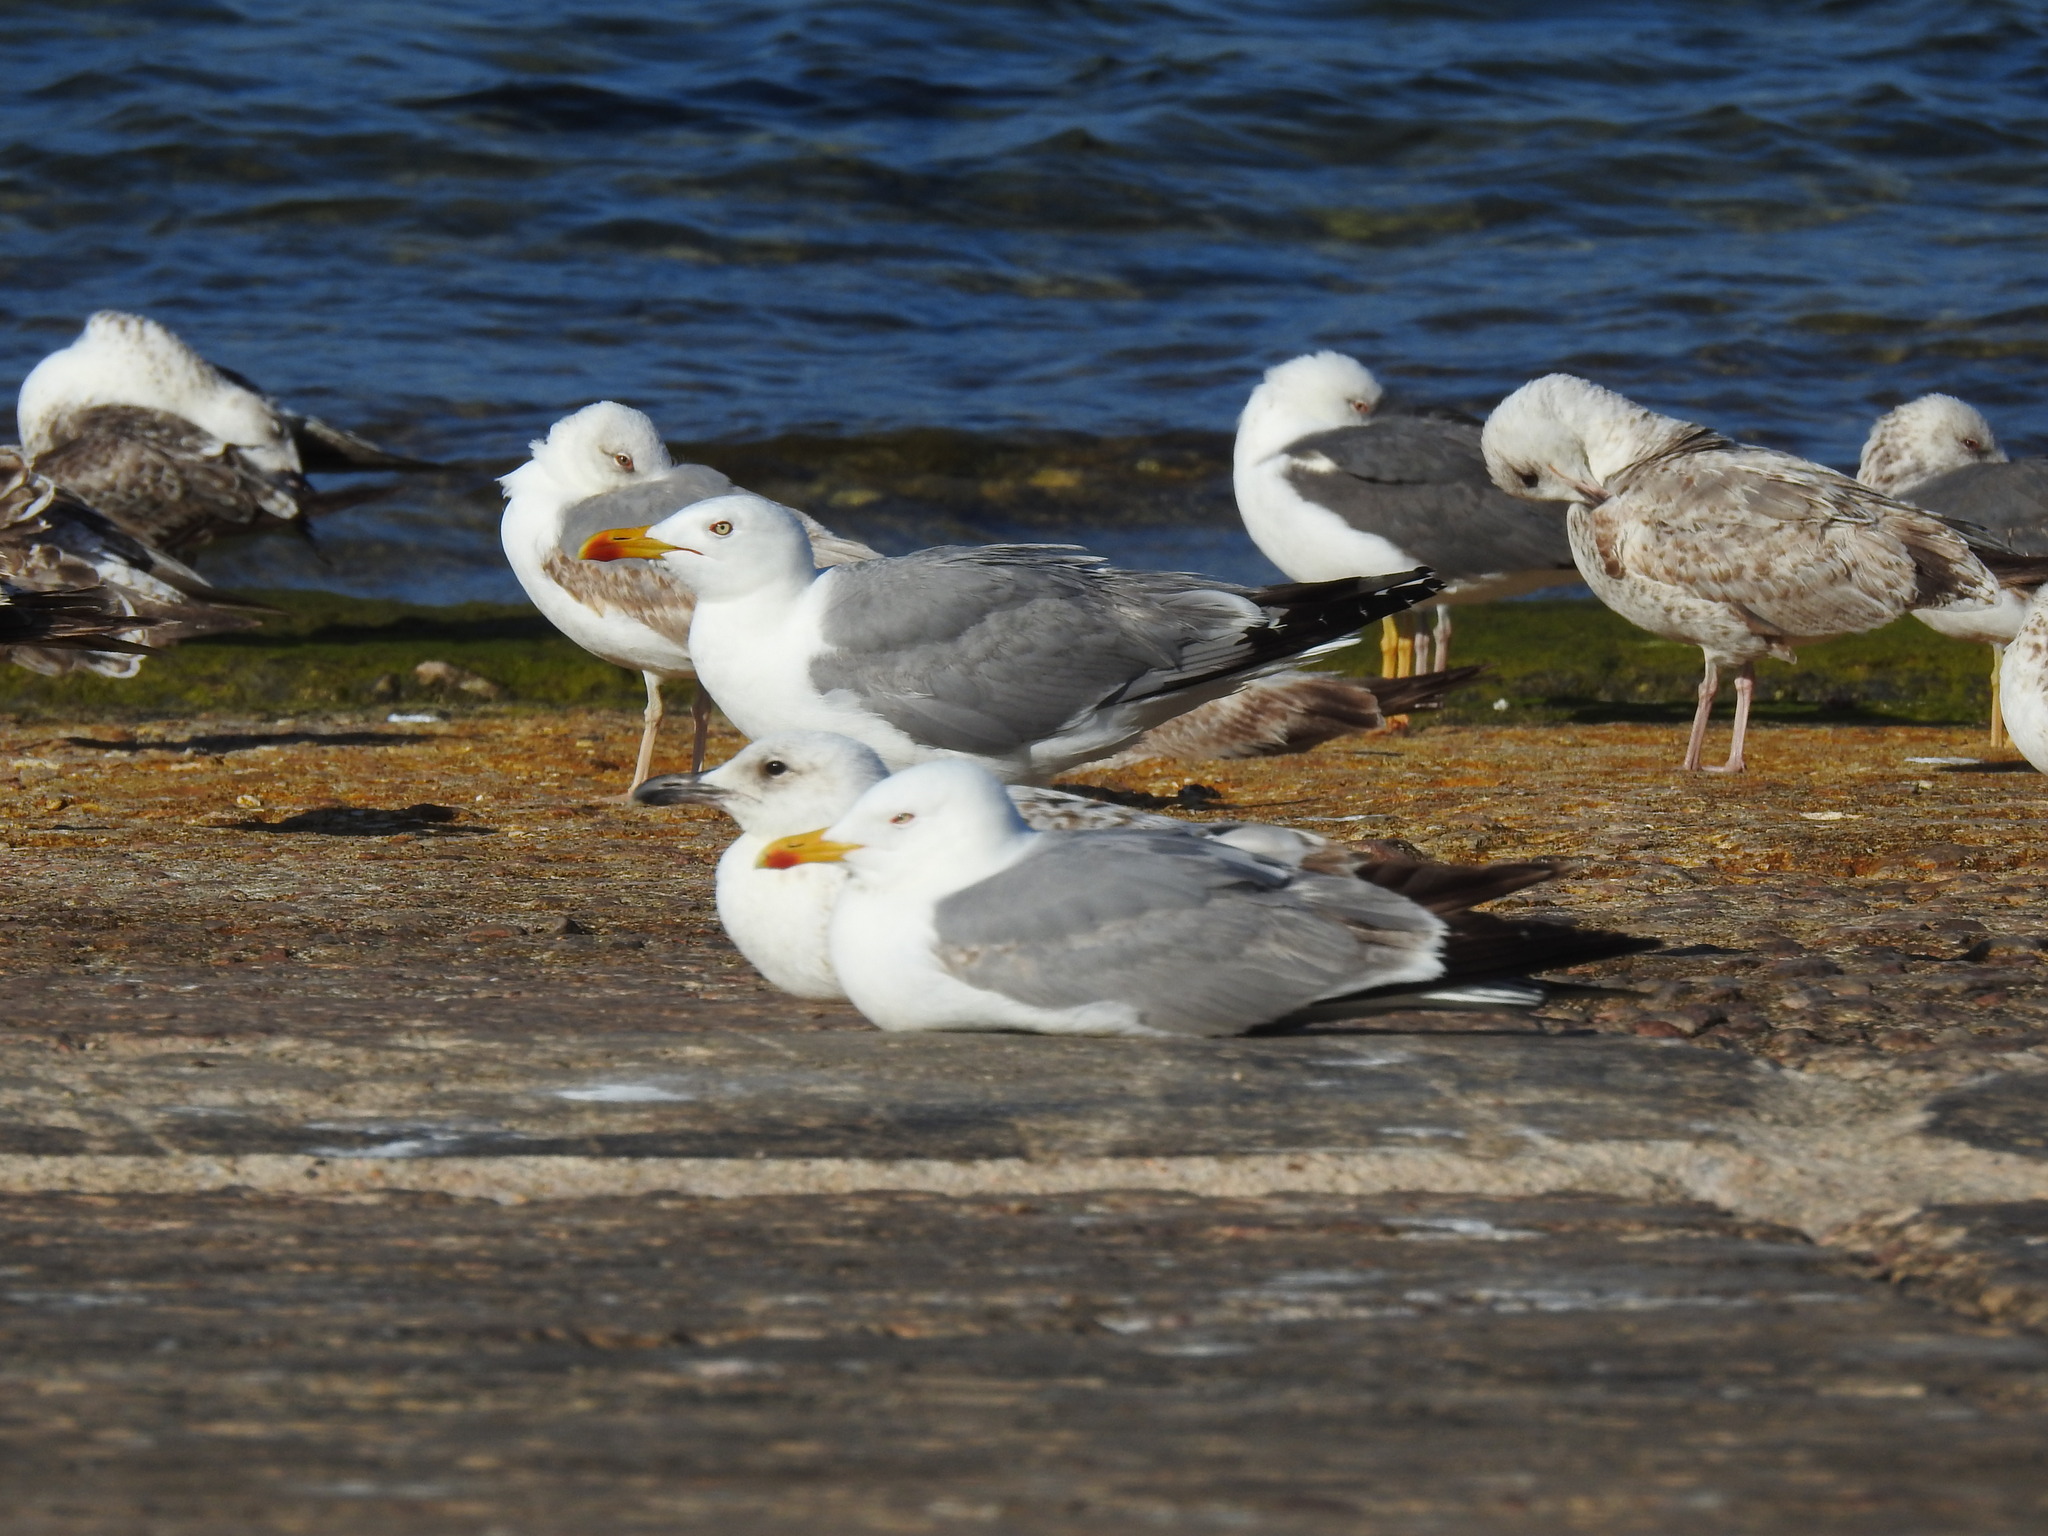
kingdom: Animalia
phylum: Chordata
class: Aves
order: Charadriiformes
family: Laridae
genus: Larus
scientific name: Larus michahellis
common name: Yellow-legged gull
